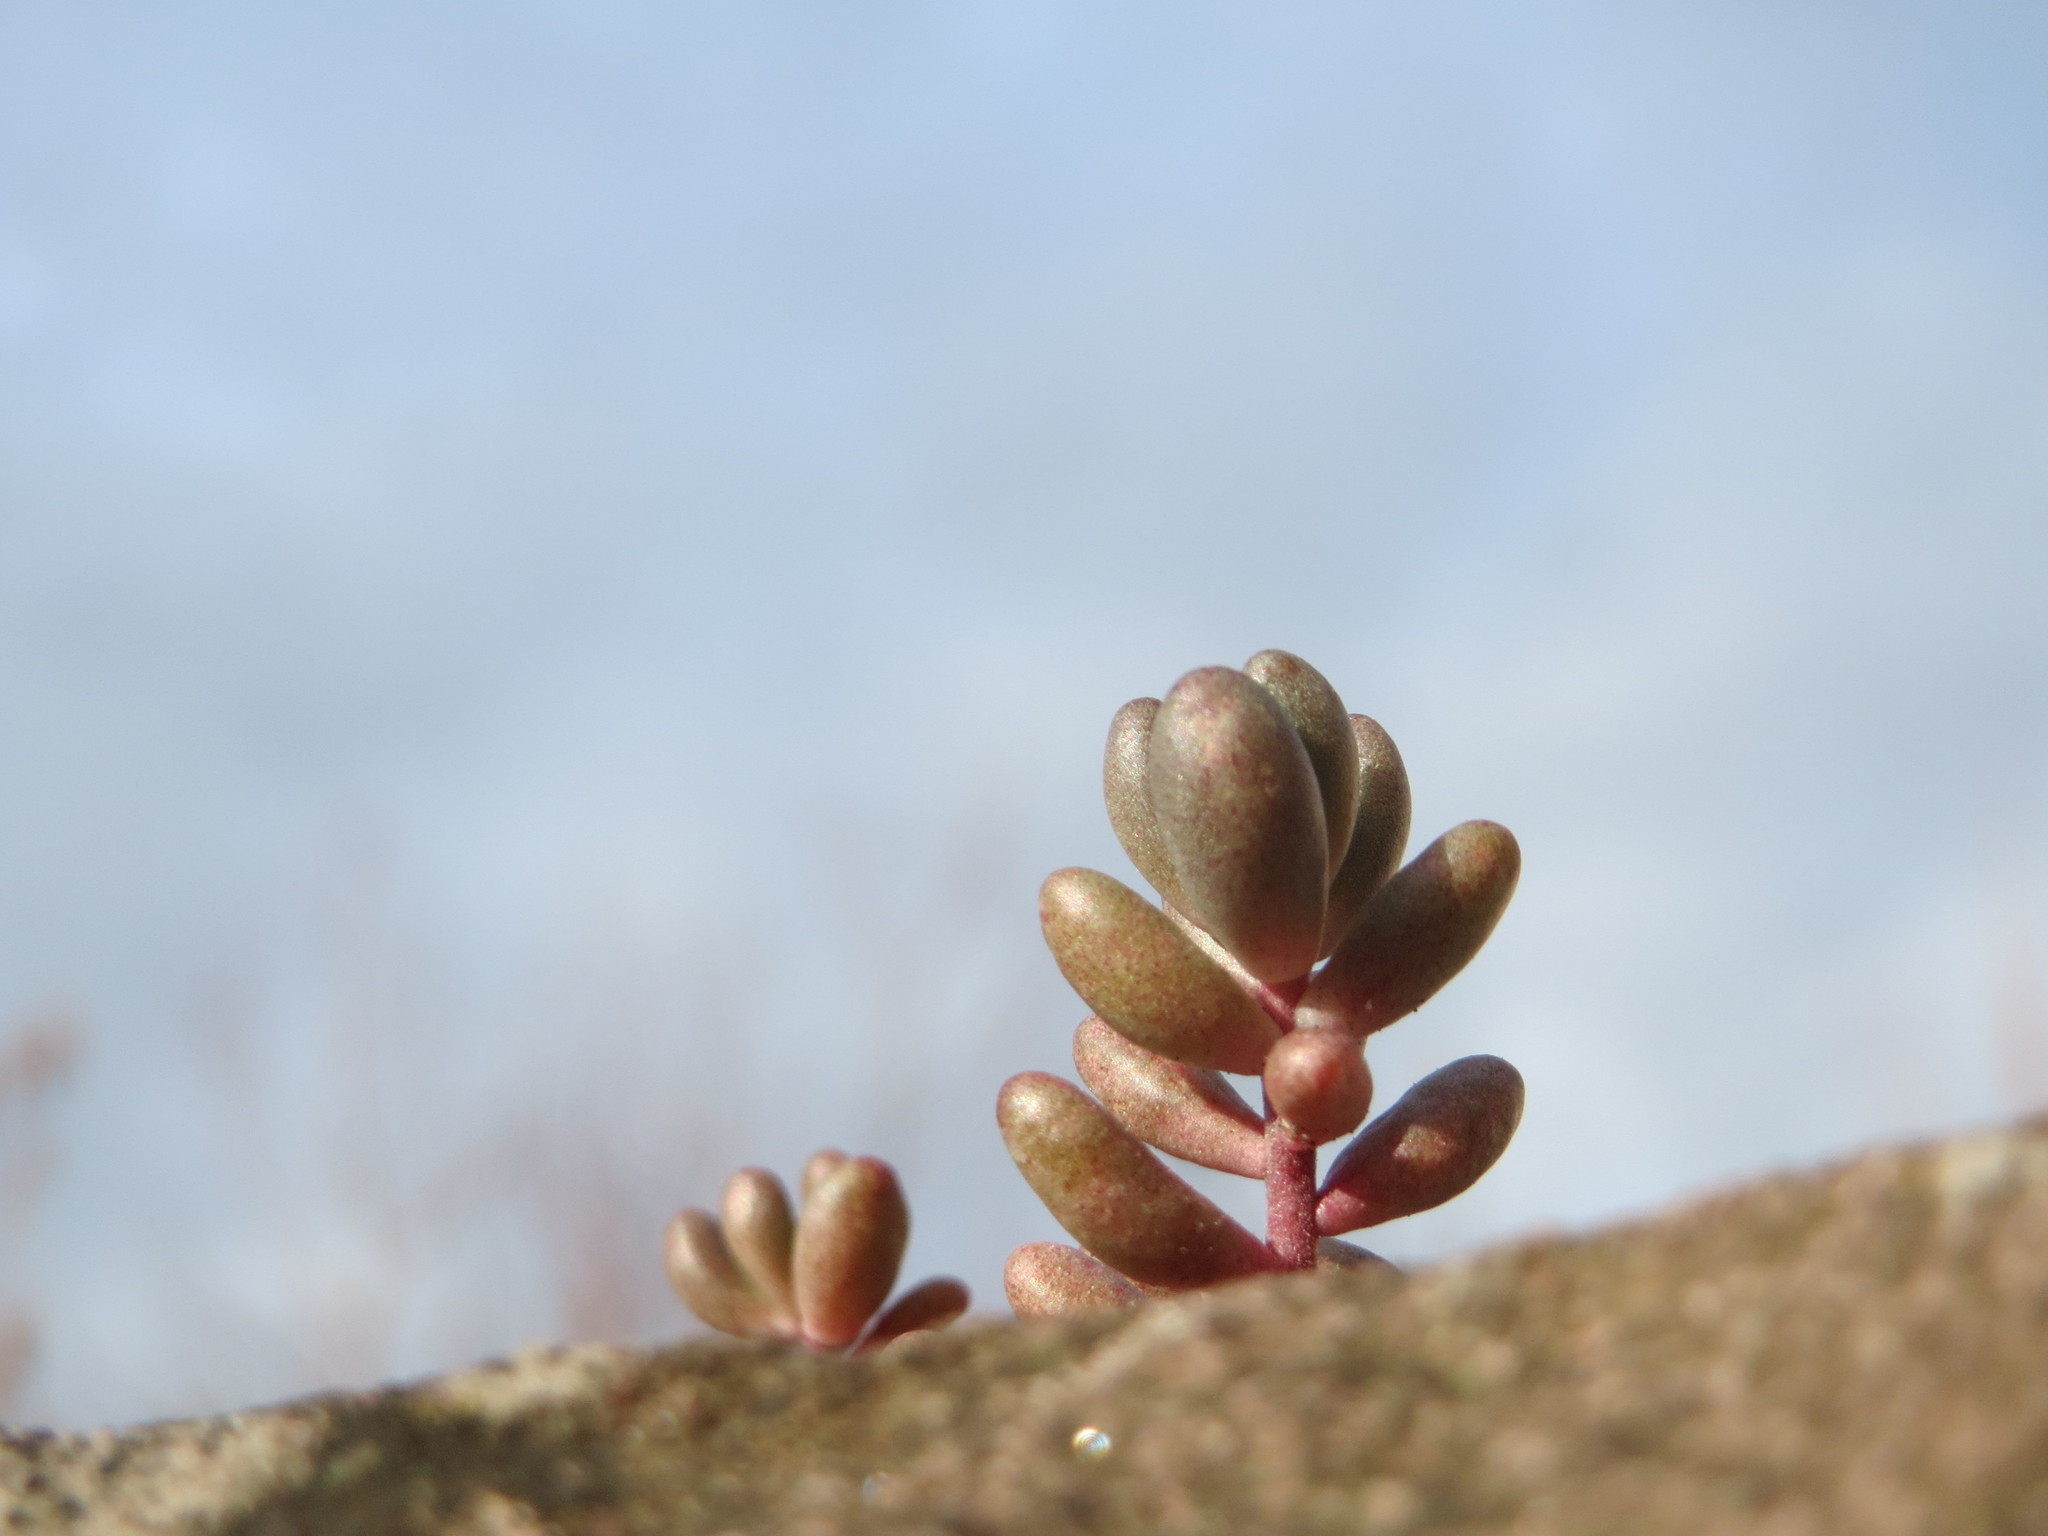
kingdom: Plantae
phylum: Tracheophyta
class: Magnoliopsida
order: Saxifragales
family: Crassulaceae
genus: Sedum
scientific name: Sedum album
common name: White stonecrop
